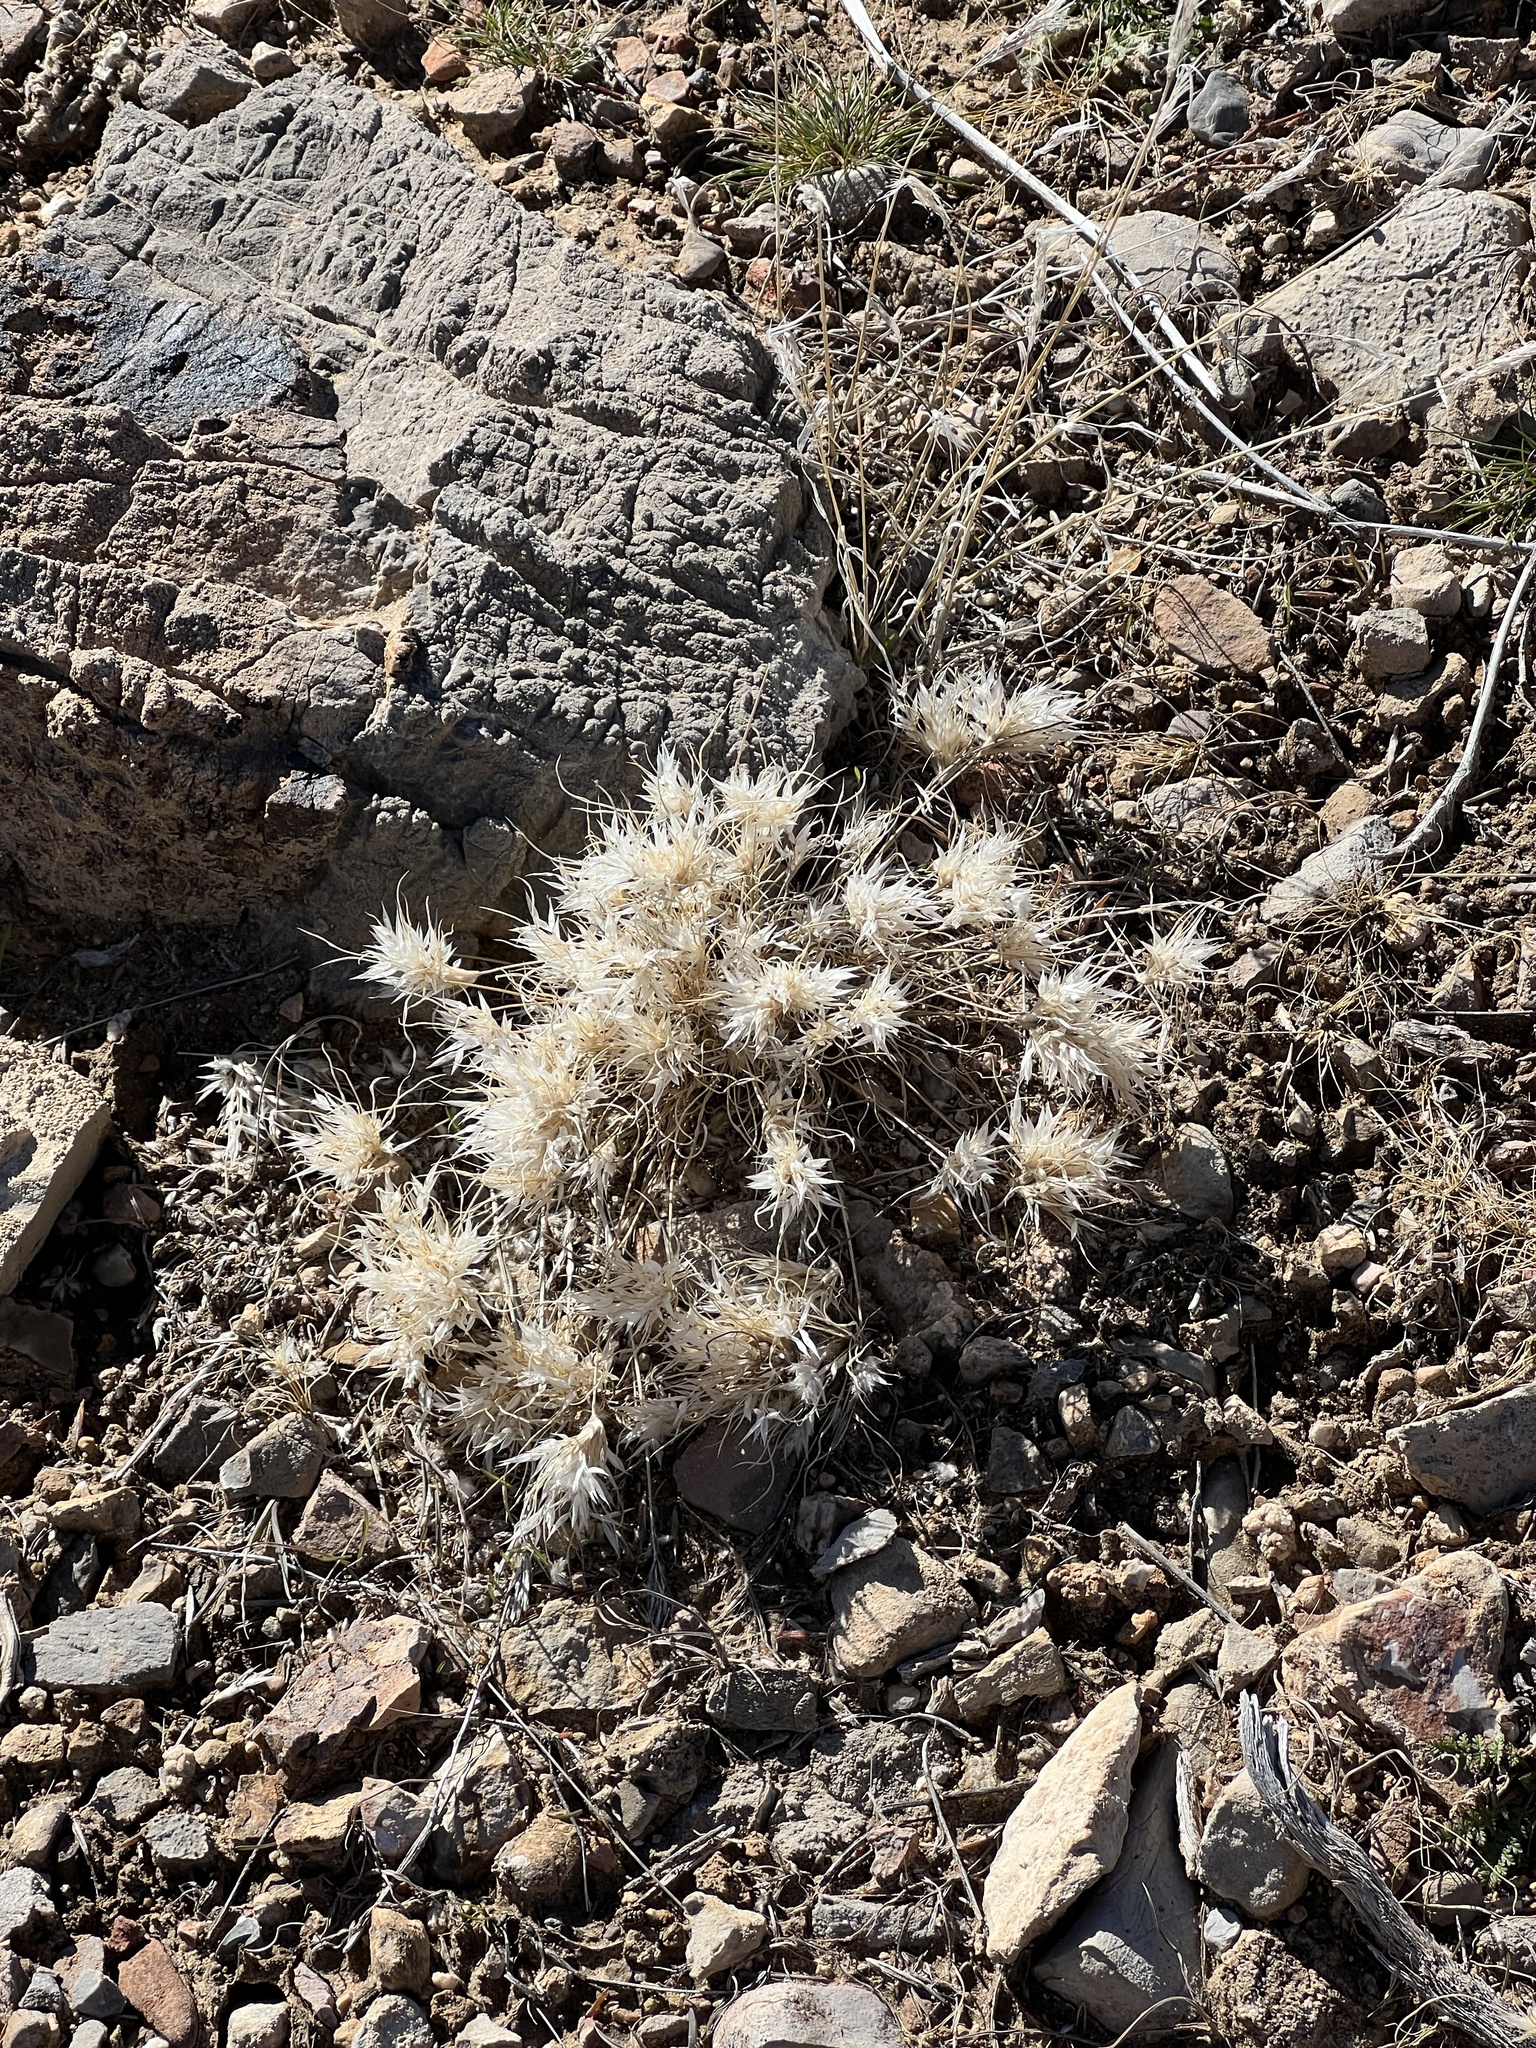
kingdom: Plantae
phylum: Tracheophyta
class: Liliopsida
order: Poales
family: Poaceae
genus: Dasyochloa
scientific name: Dasyochloa pulchella
